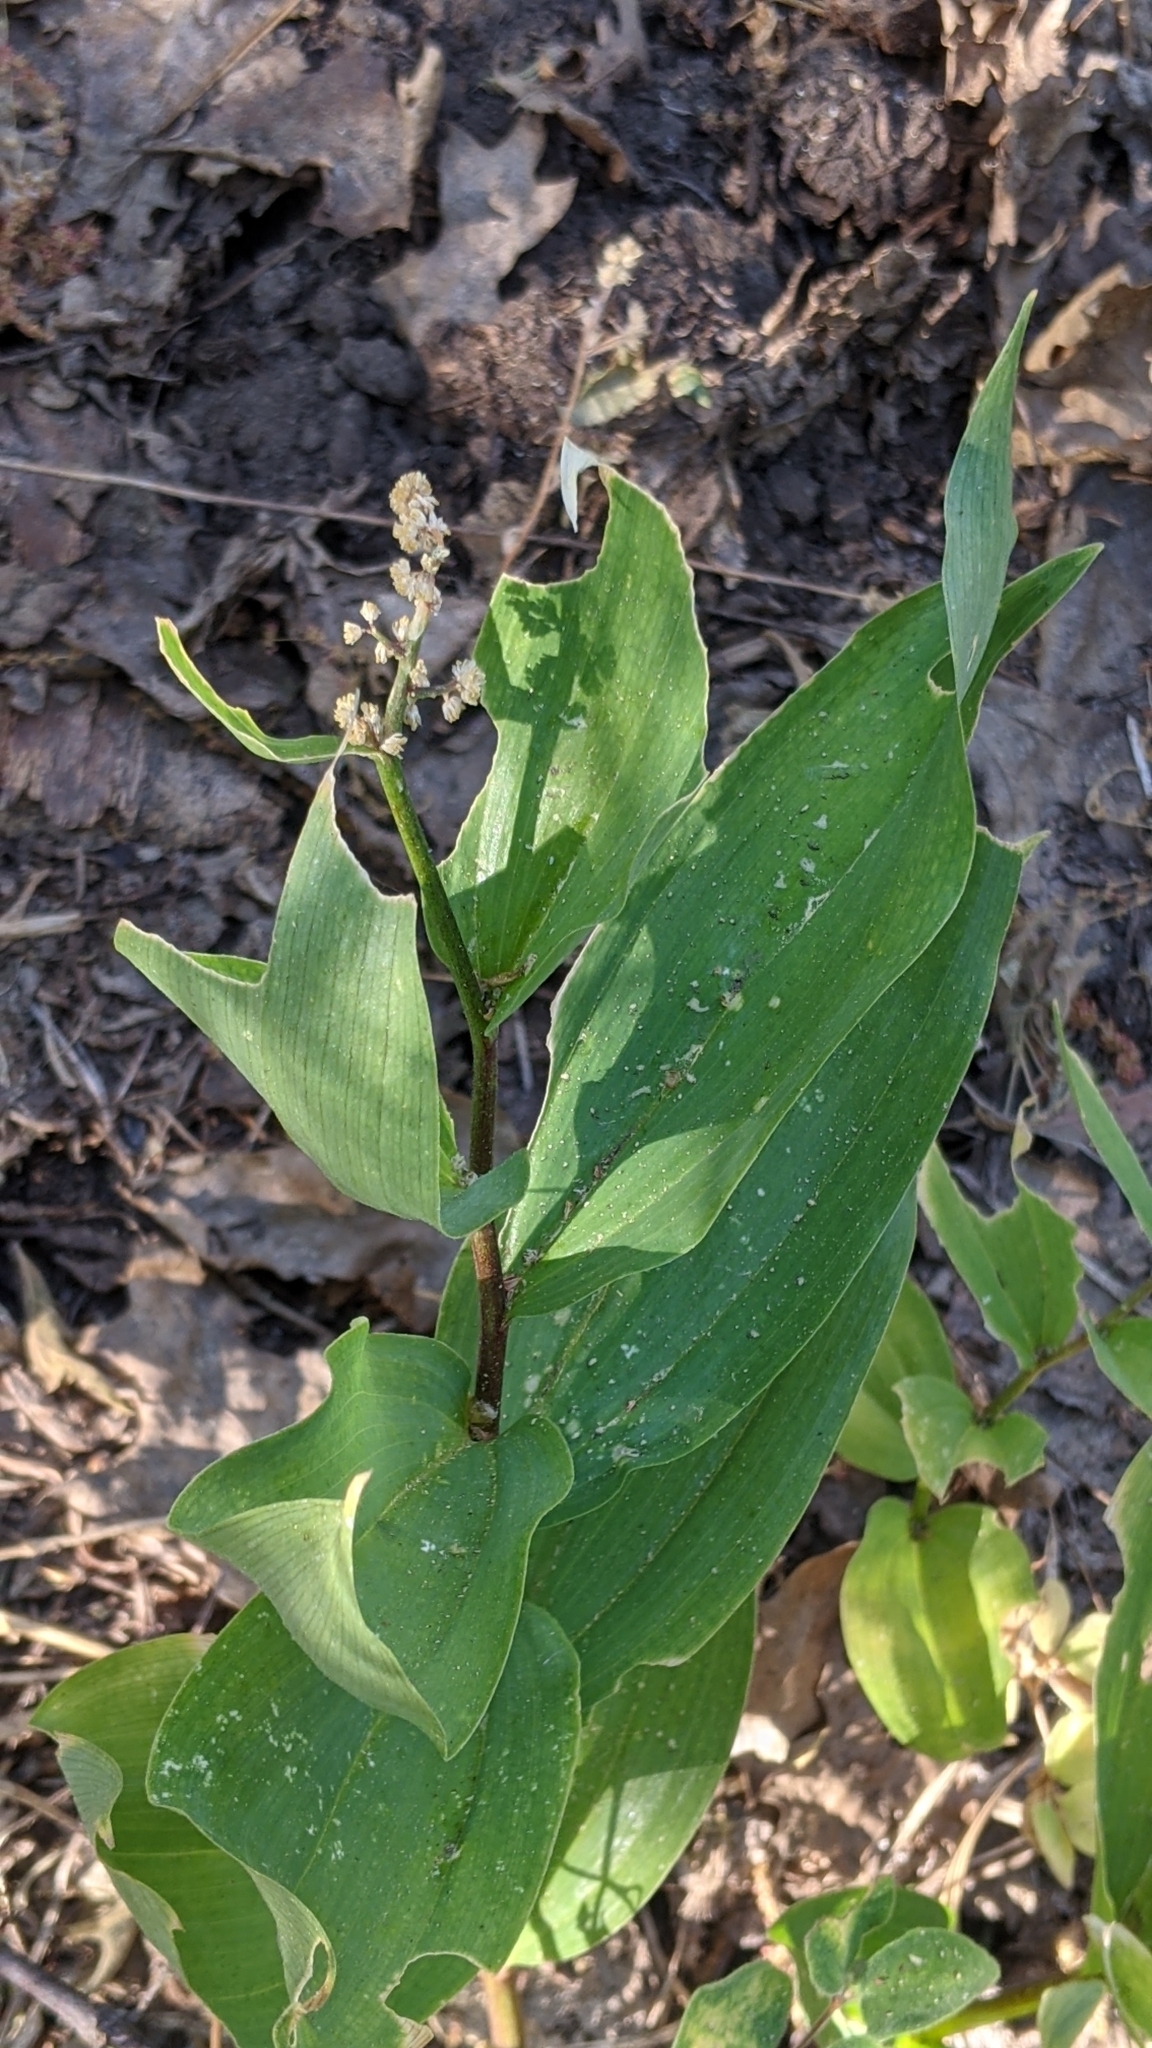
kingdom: Plantae
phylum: Tracheophyta
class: Liliopsida
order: Asparagales
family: Asparagaceae
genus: Maianthemum
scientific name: Maianthemum racemosum
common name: False spikenard
